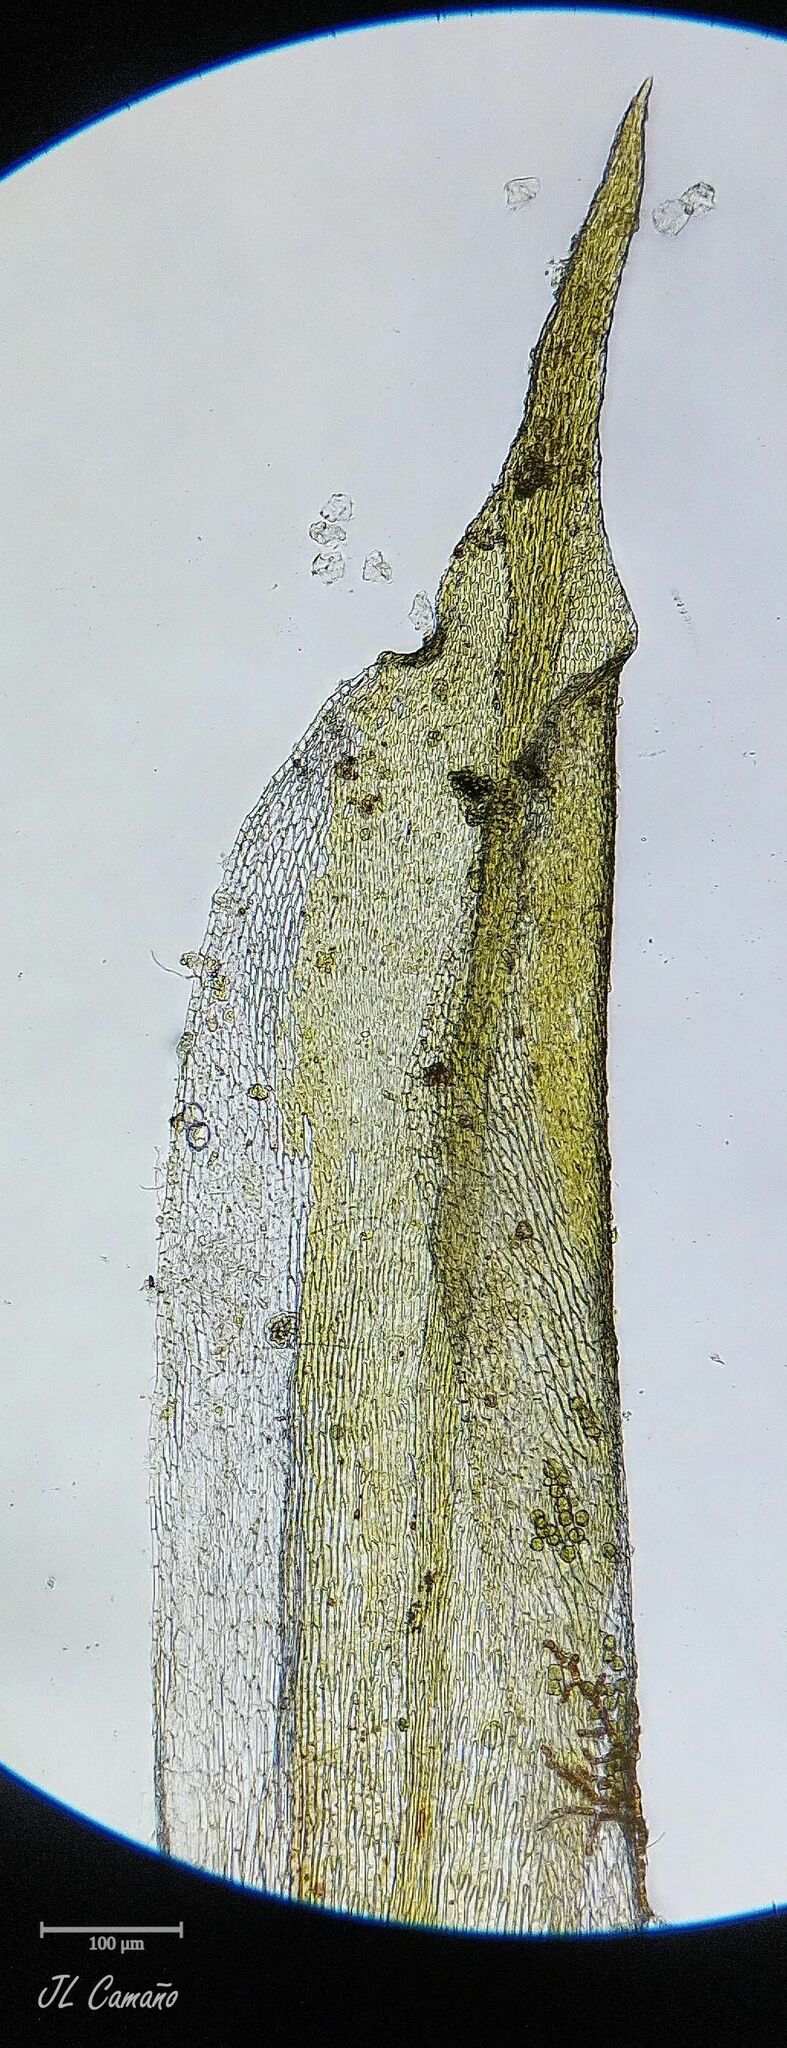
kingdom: Plantae
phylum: Bryophyta
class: Bryopsida
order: Hypnales
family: Cryphaeaceae
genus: Cryphaea
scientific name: Cryphaea heteromalla
